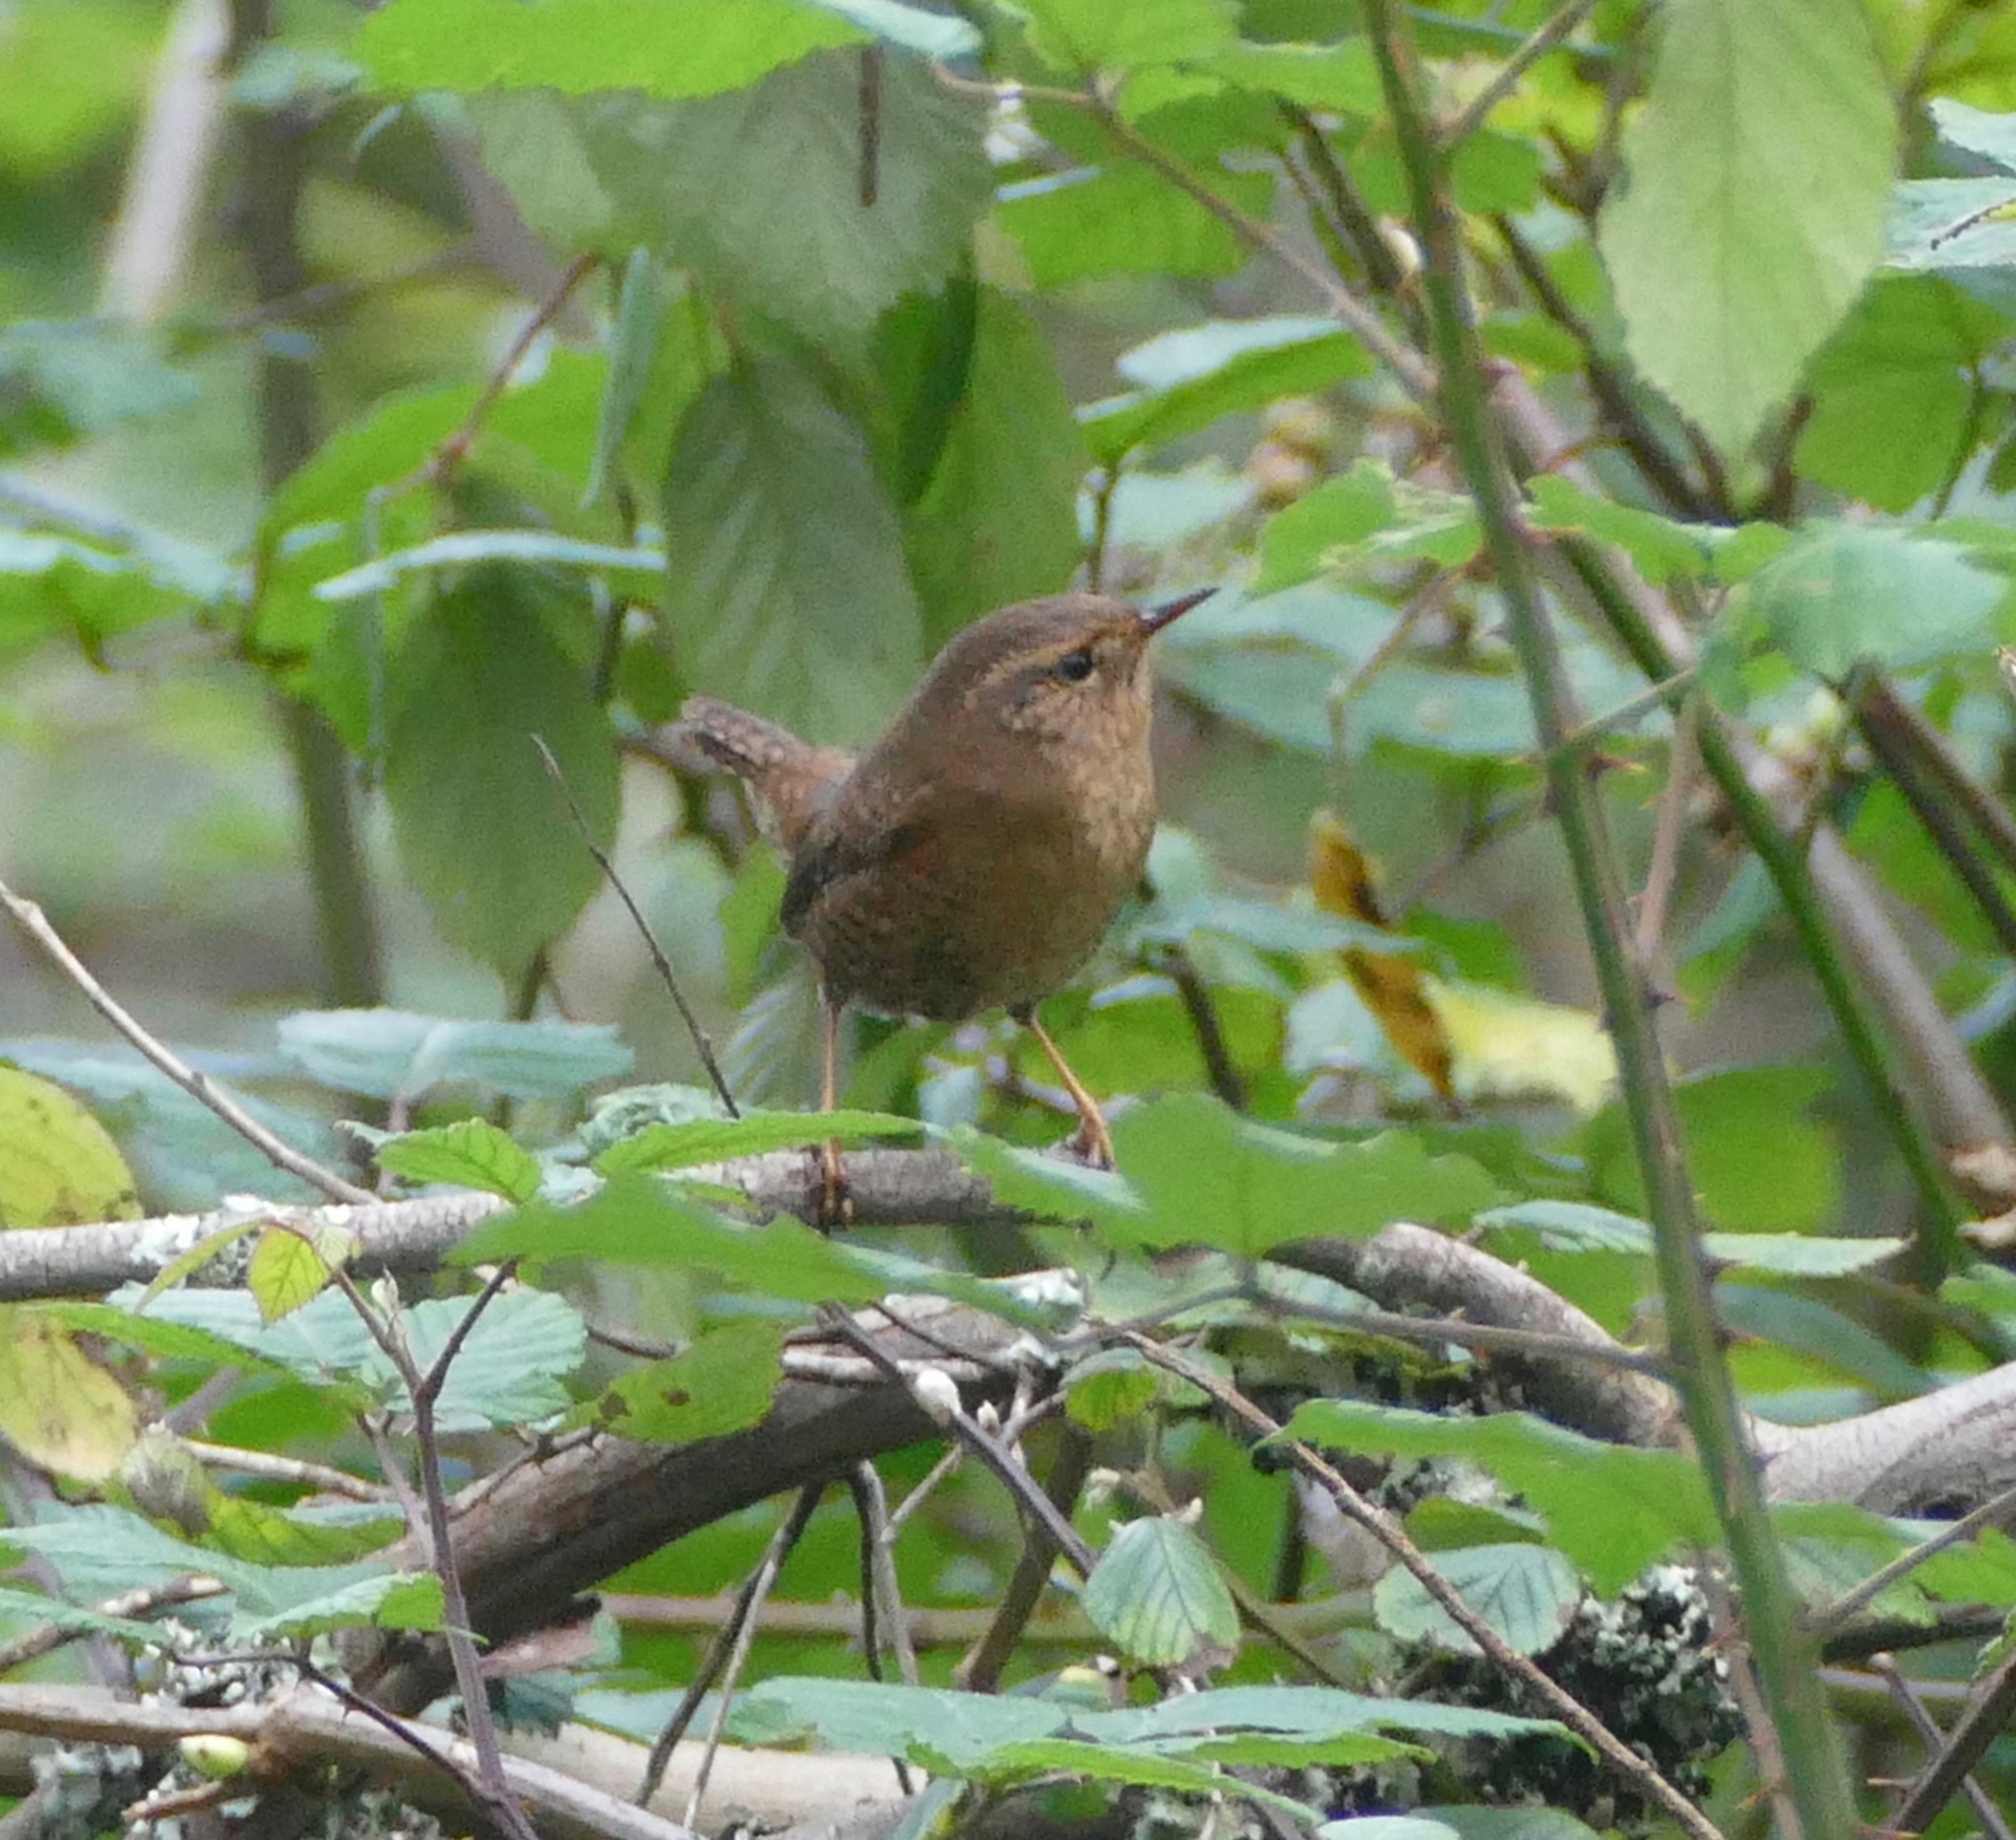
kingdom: Animalia
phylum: Chordata
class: Aves
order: Passeriformes
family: Troglodytidae
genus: Troglodytes
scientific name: Troglodytes pacificus
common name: Pacific wren
